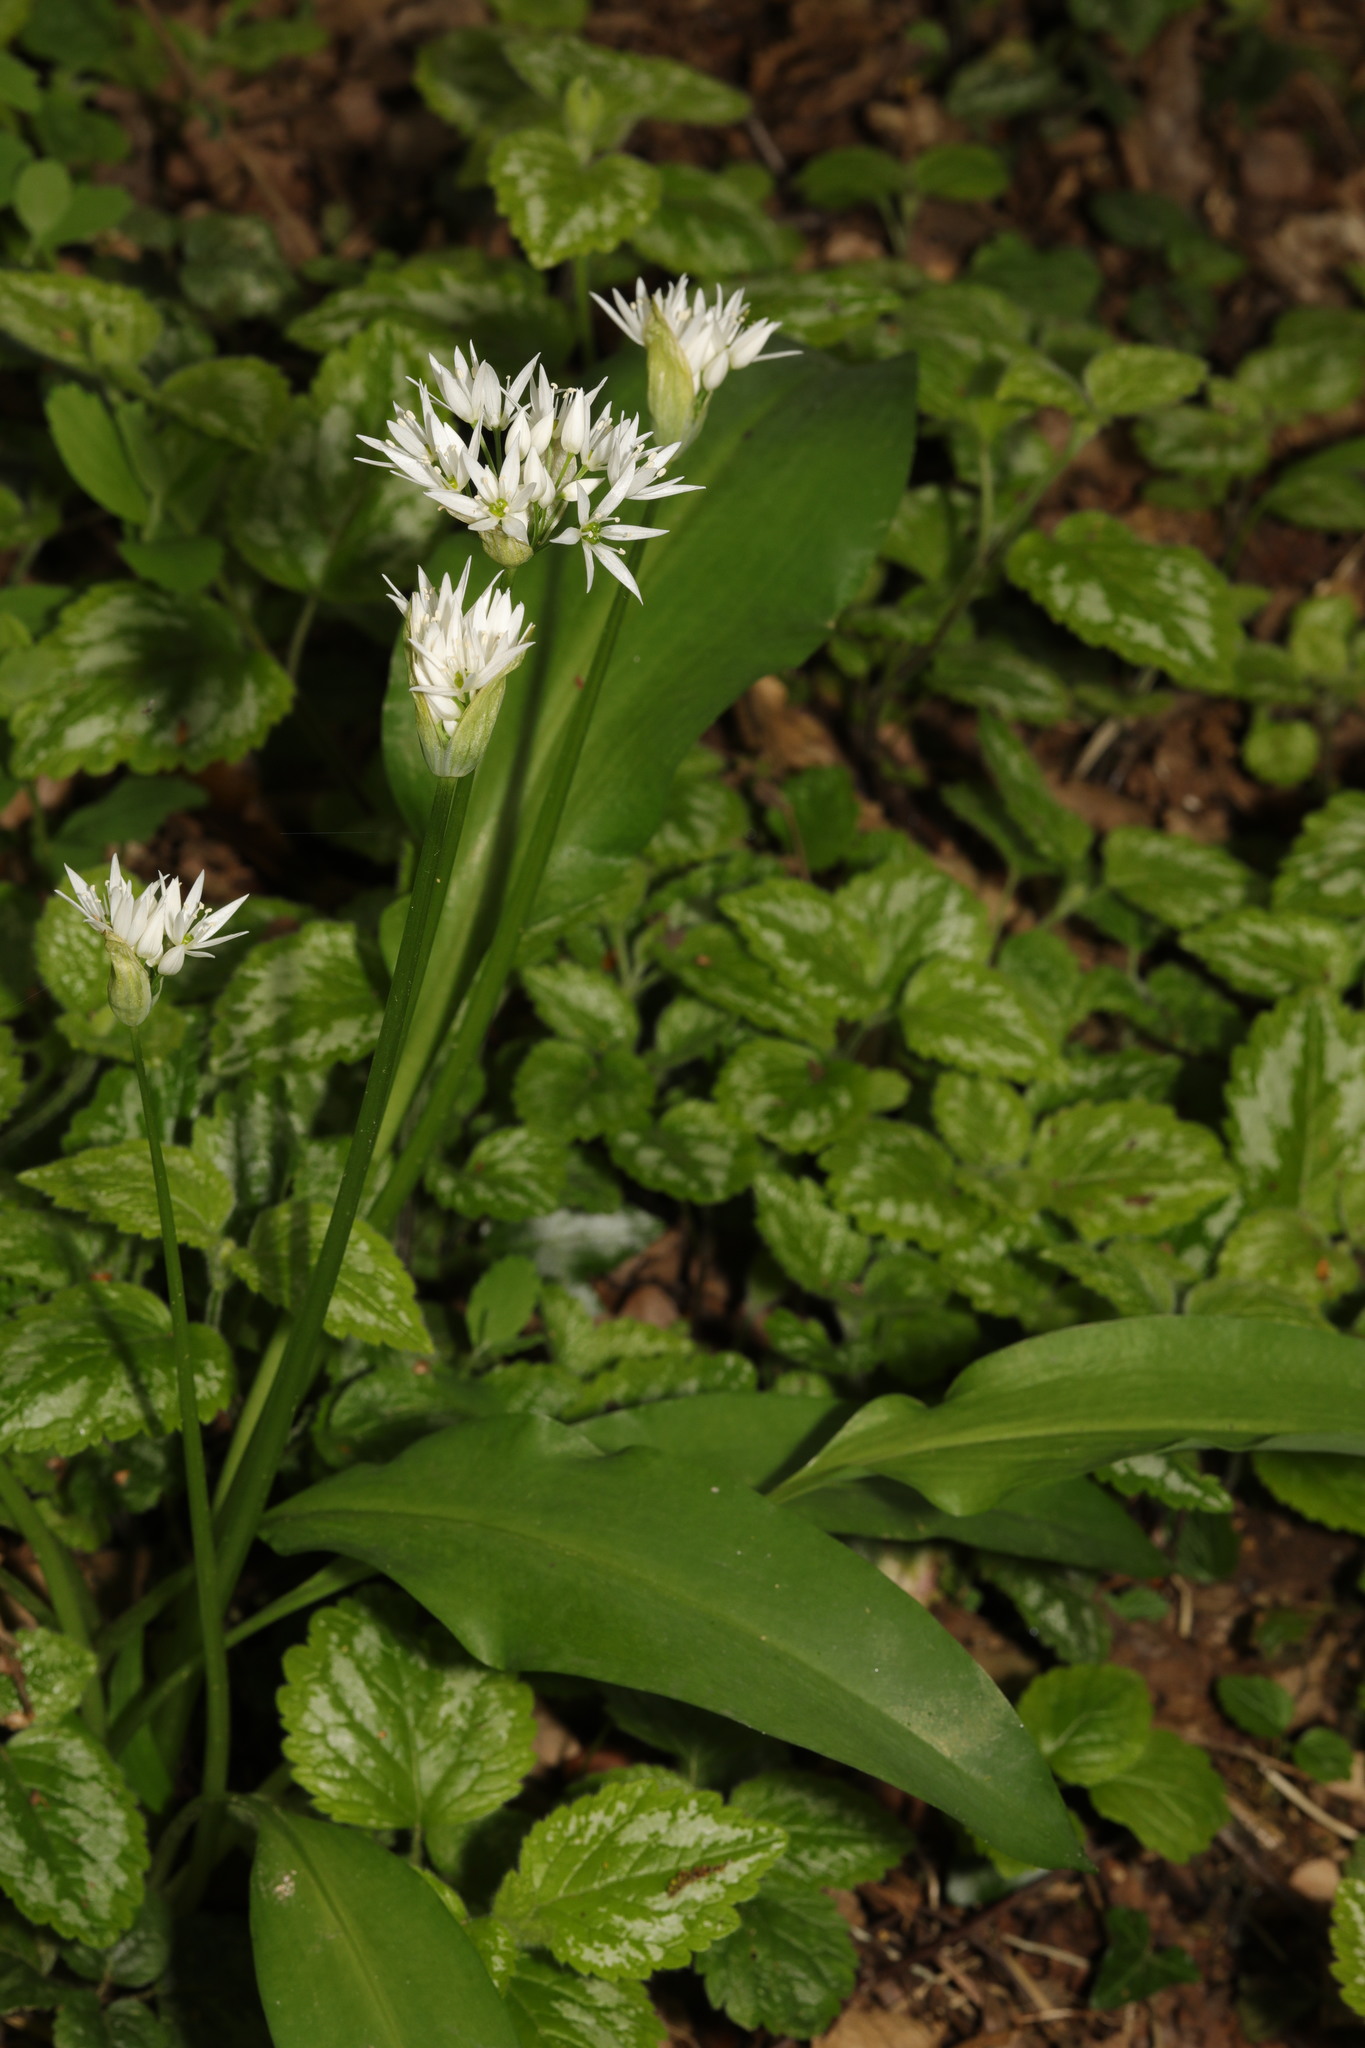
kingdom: Plantae
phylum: Tracheophyta
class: Liliopsida
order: Asparagales
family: Amaryllidaceae
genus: Allium
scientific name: Allium ursinum
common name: Ramsons
